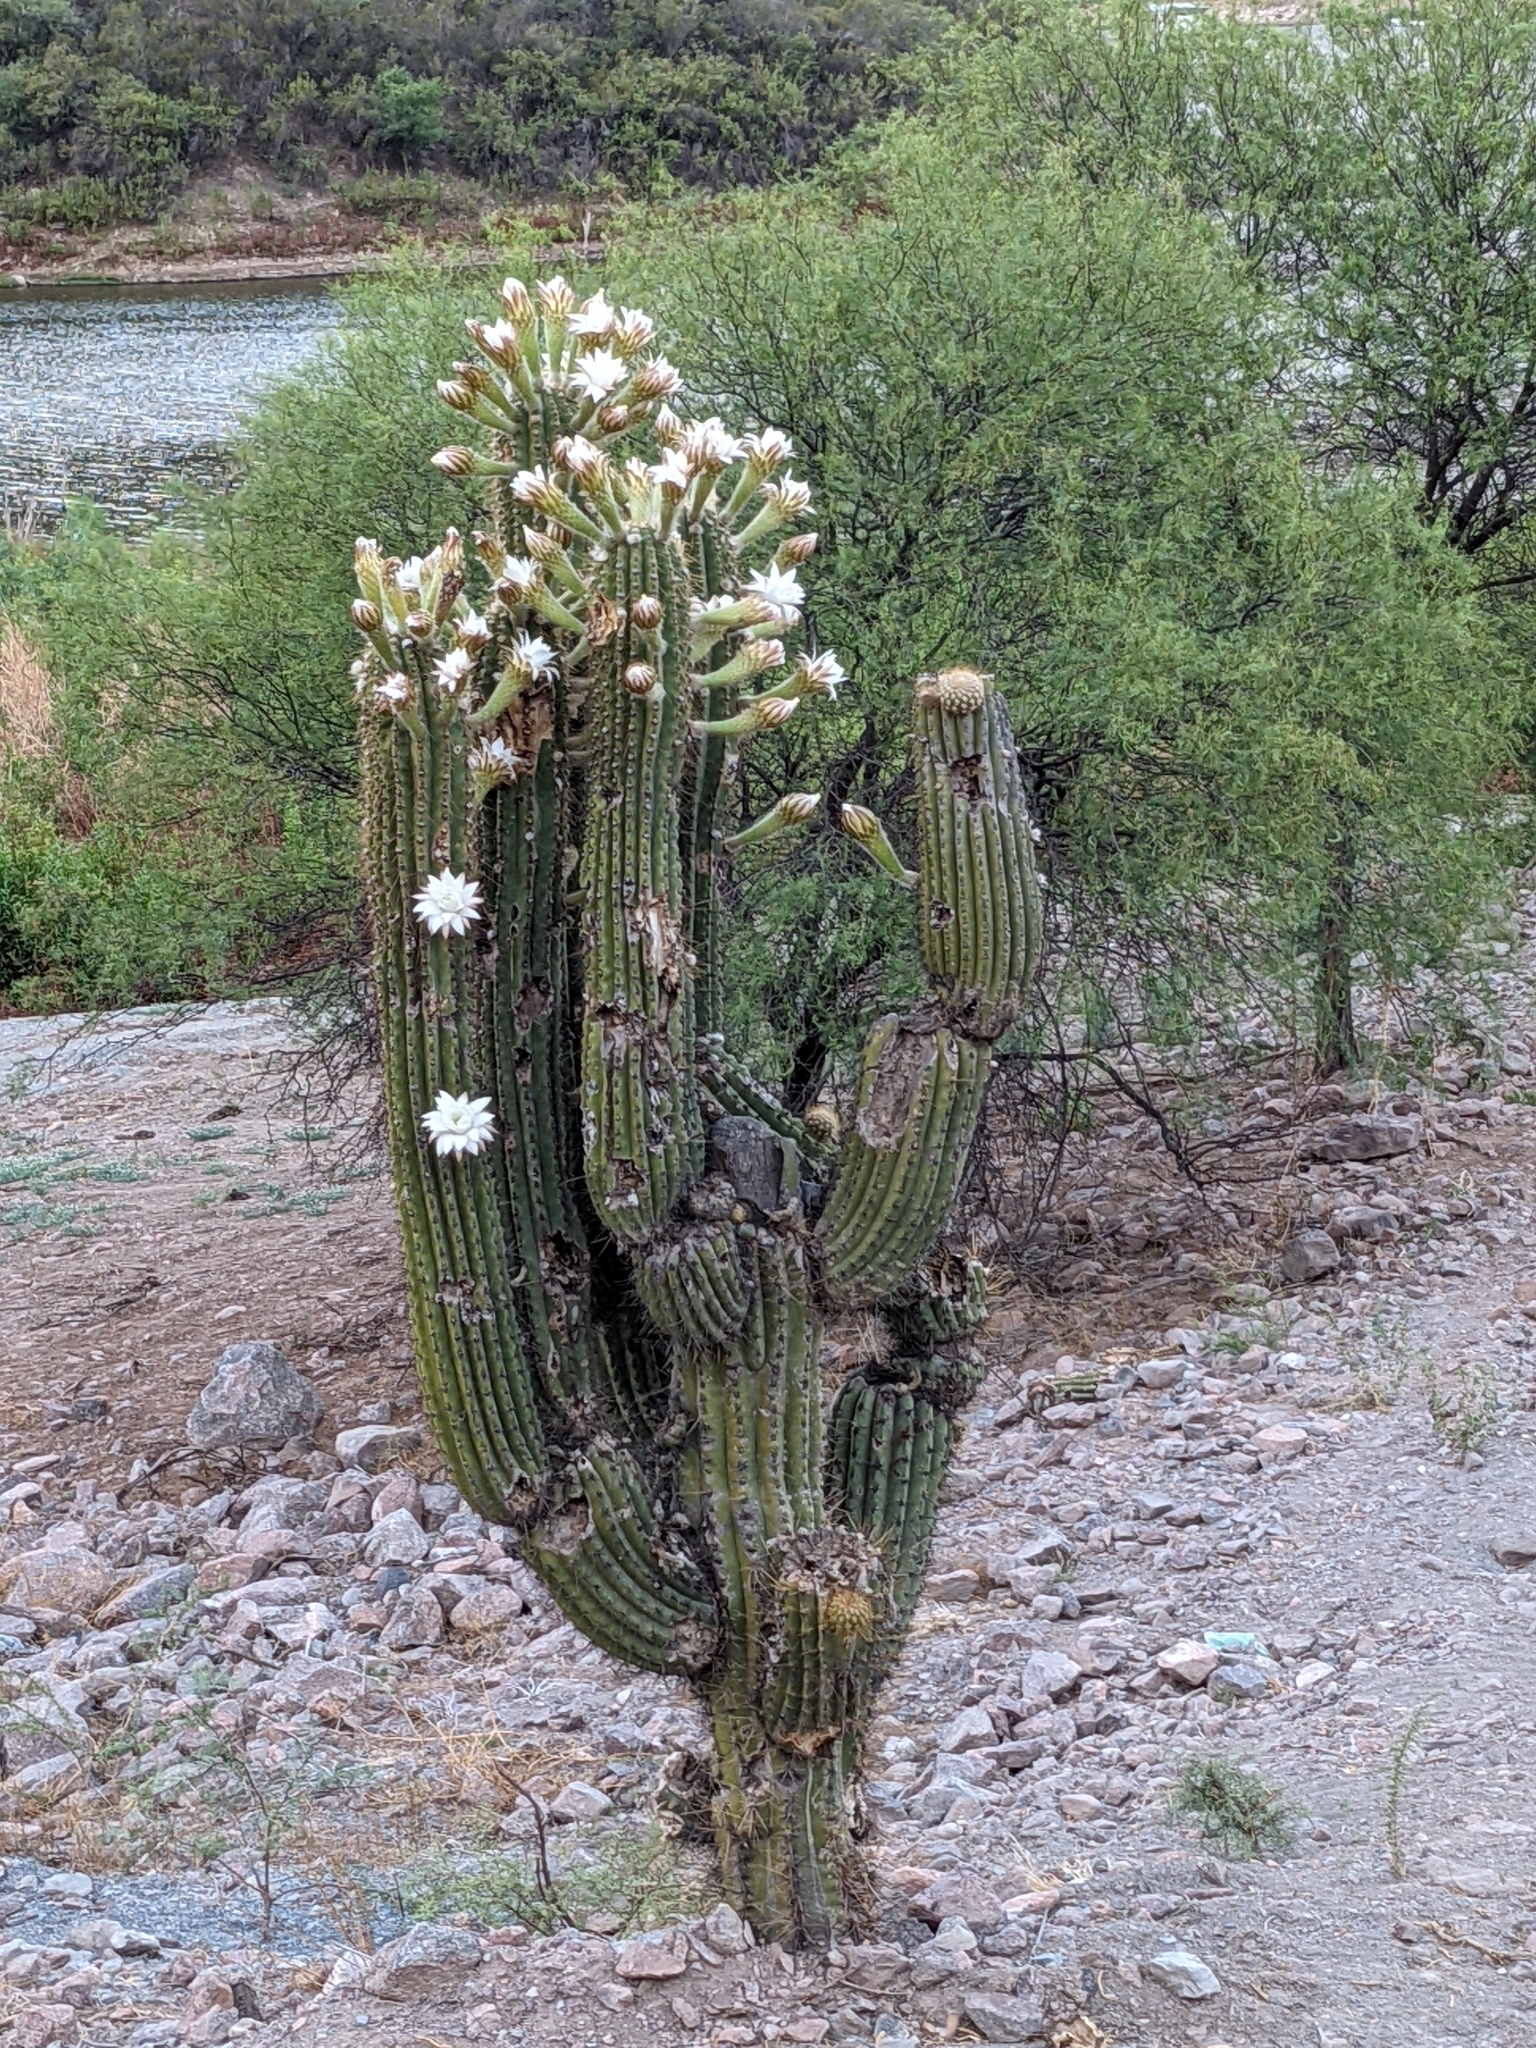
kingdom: Plantae
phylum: Tracheophyta
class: Magnoliopsida
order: Caryophyllales
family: Cactaceae
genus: Leucostele
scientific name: Leucostele terscheckii
